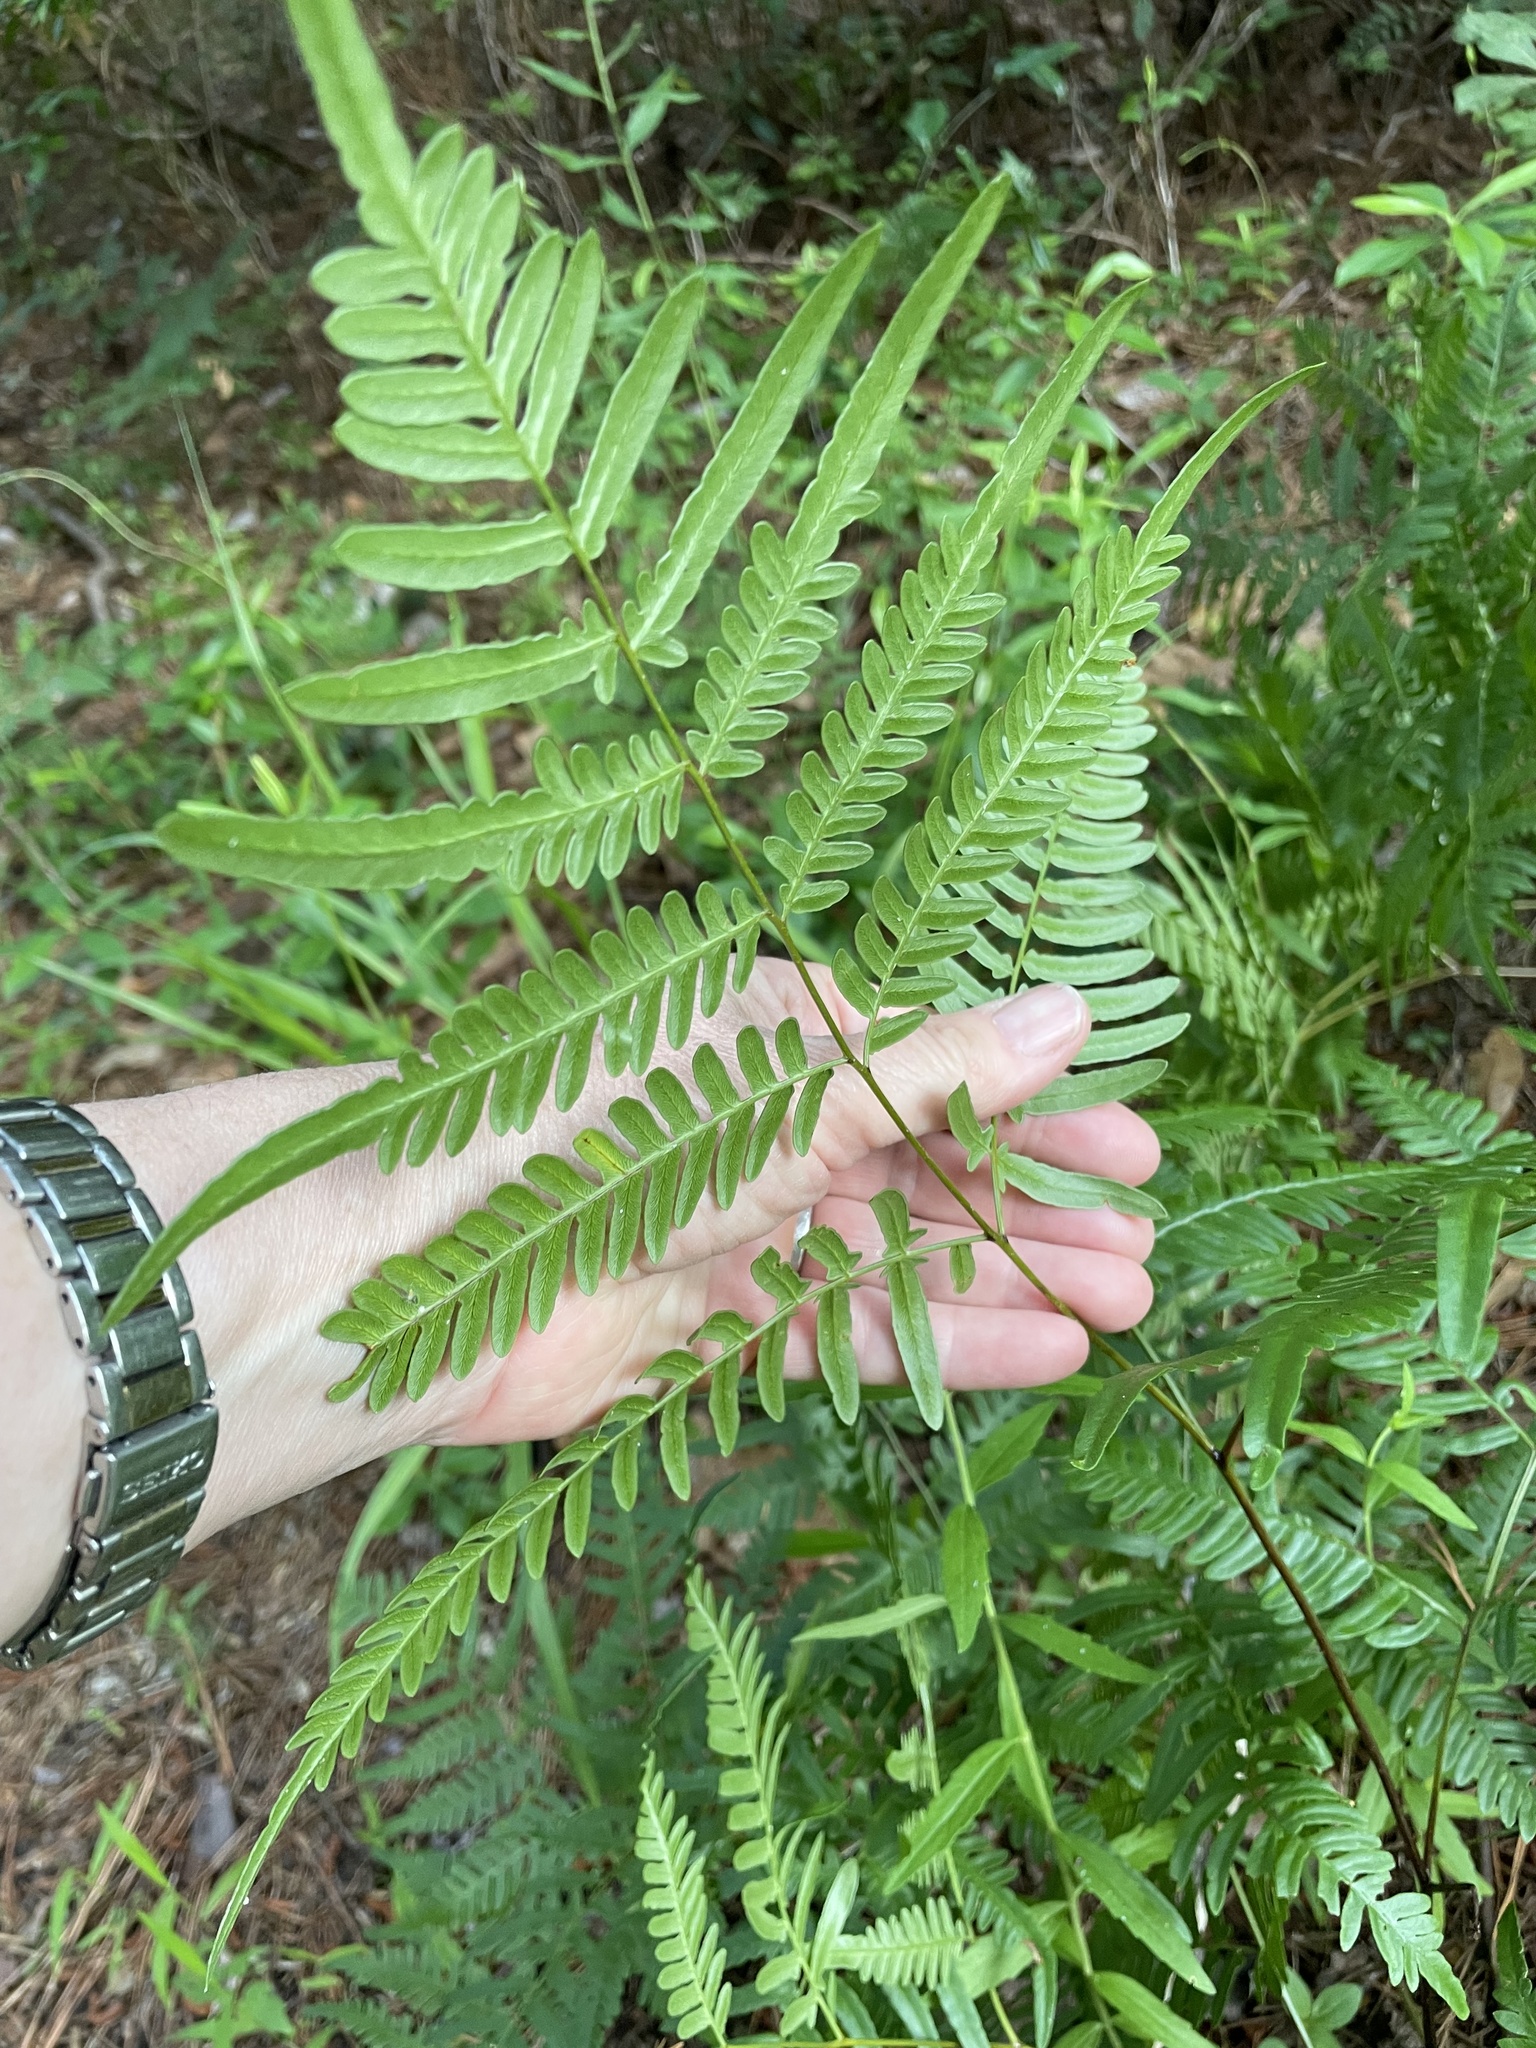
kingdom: Plantae
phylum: Tracheophyta
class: Polypodiopsida
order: Polypodiales
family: Dennstaedtiaceae
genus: Pteridium
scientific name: Pteridium
